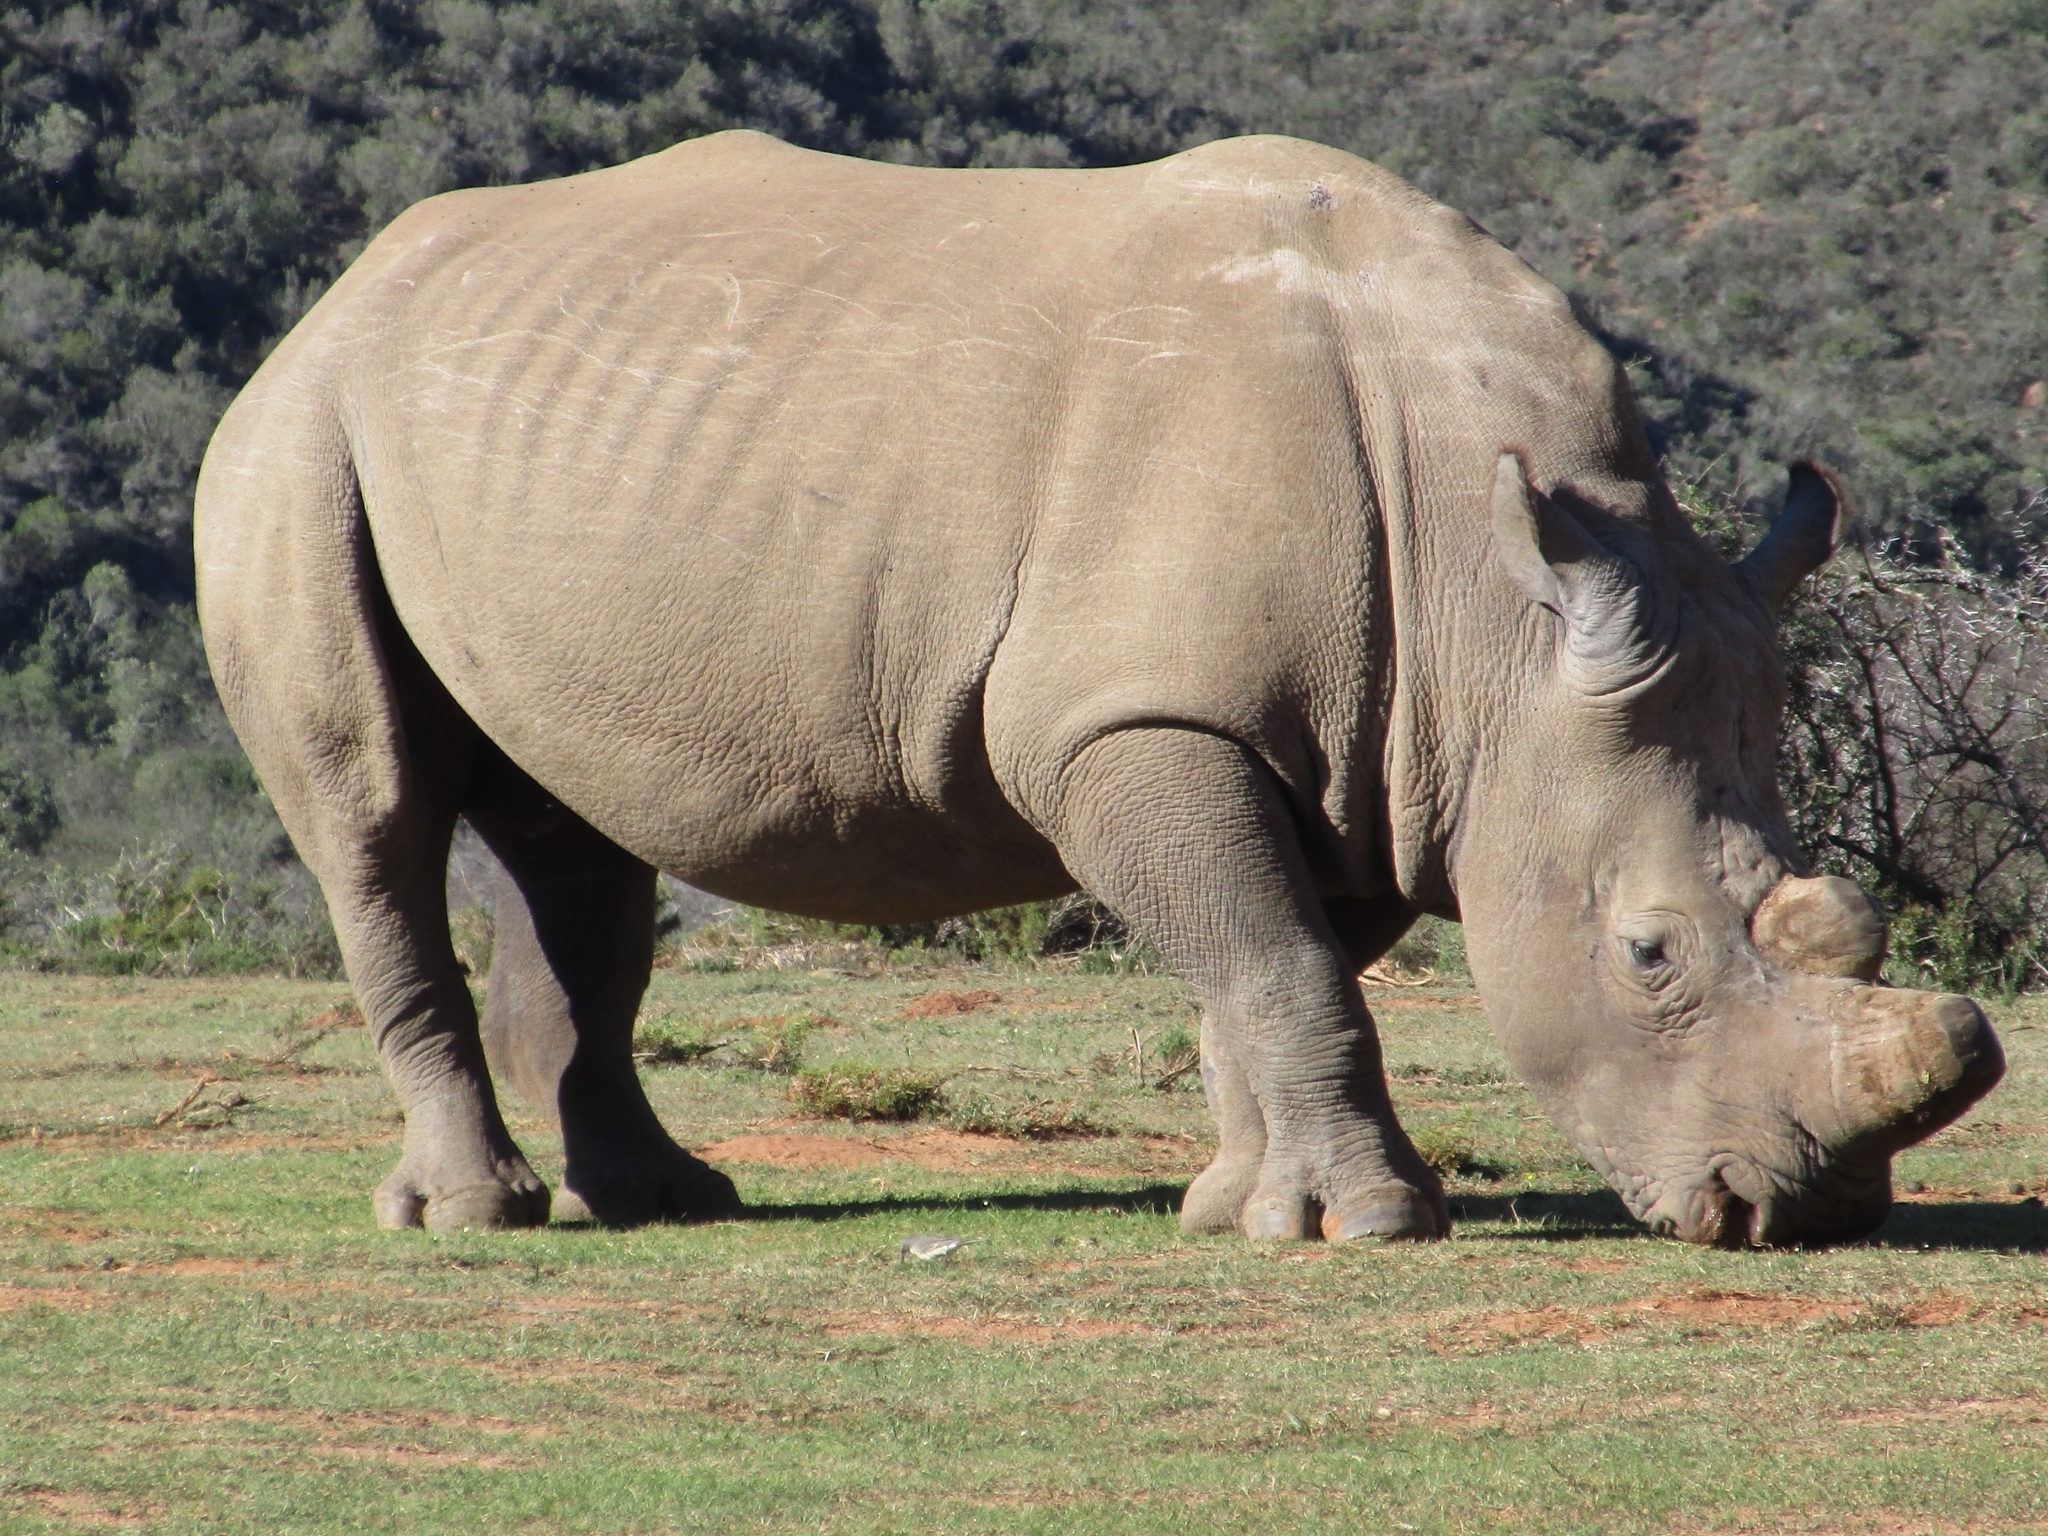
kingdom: Animalia
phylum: Chordata
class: Mammalia
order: Perissodactyla
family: Rhinocerotidae
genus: Ceratotherium
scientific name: Ceratotherium simum
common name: White rhinoceros
